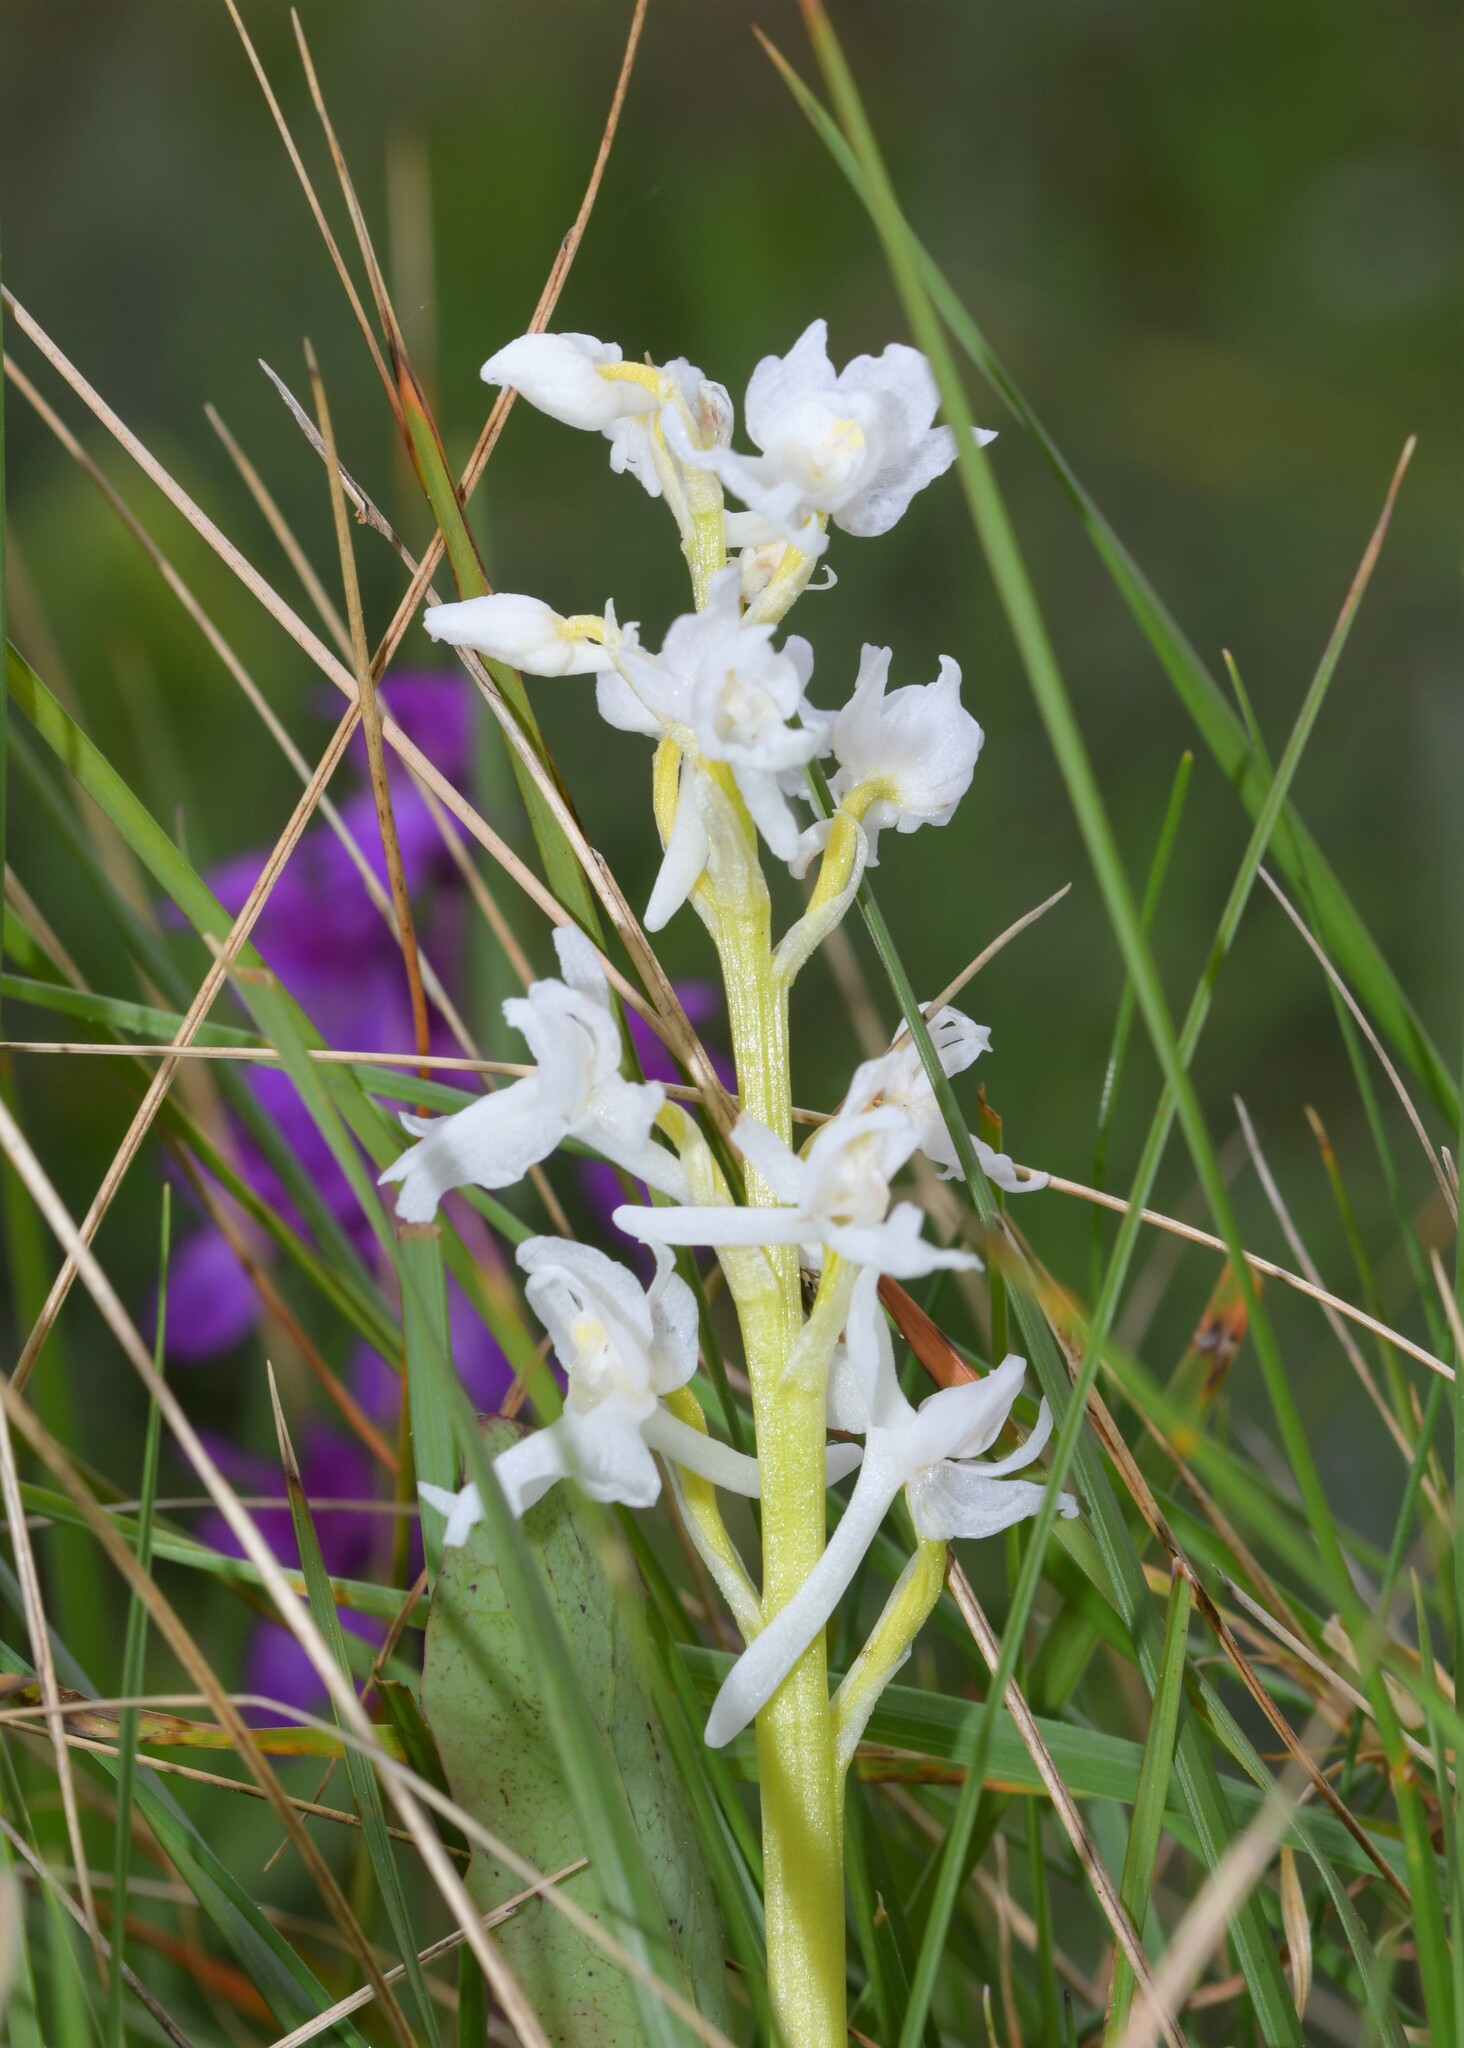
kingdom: Plantae
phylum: Tracheophyta
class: Liliopsida
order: Asparagales
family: Orchidaceae
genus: Anacamptis
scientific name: Anacamptis morio
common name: Green-winged orchid
